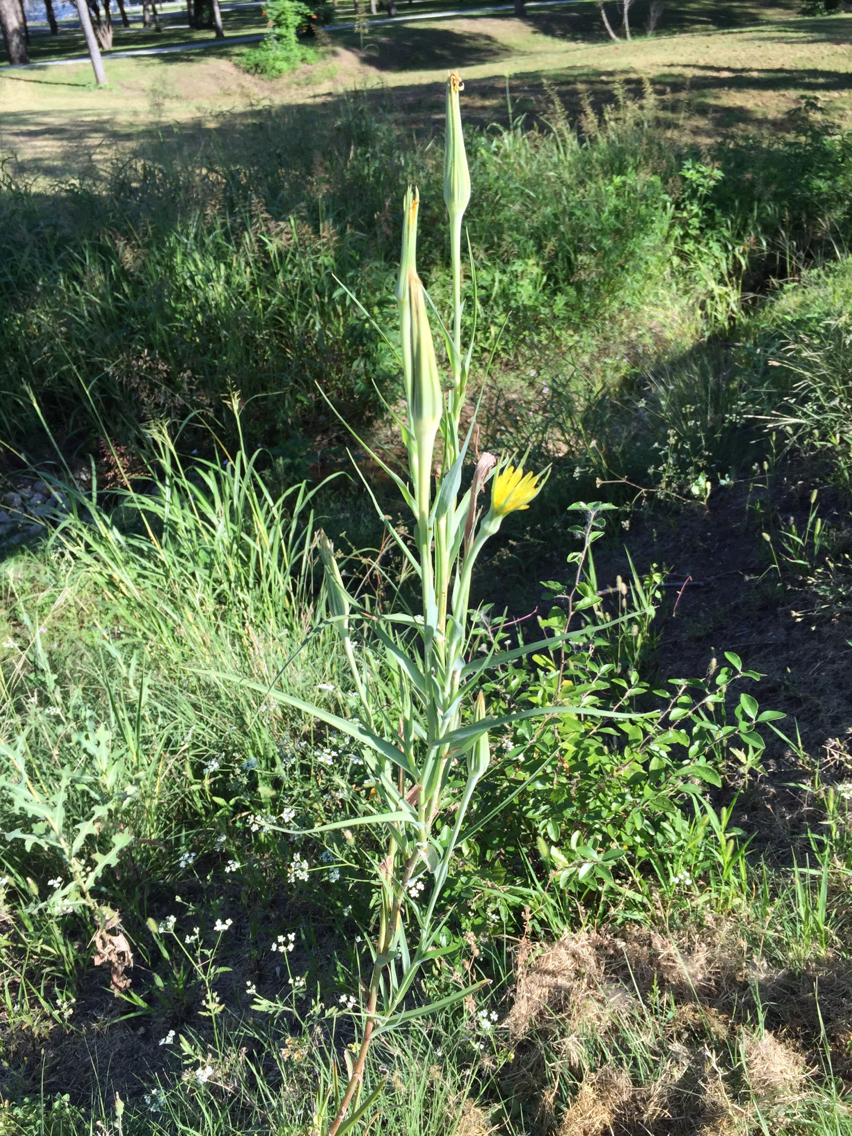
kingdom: Plantae
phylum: Tracheophyta
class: Magnoliopsida
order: Asterales
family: Asteraceae
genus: Tragopogon
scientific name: Tragopogon dubius
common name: Yellow salsify
